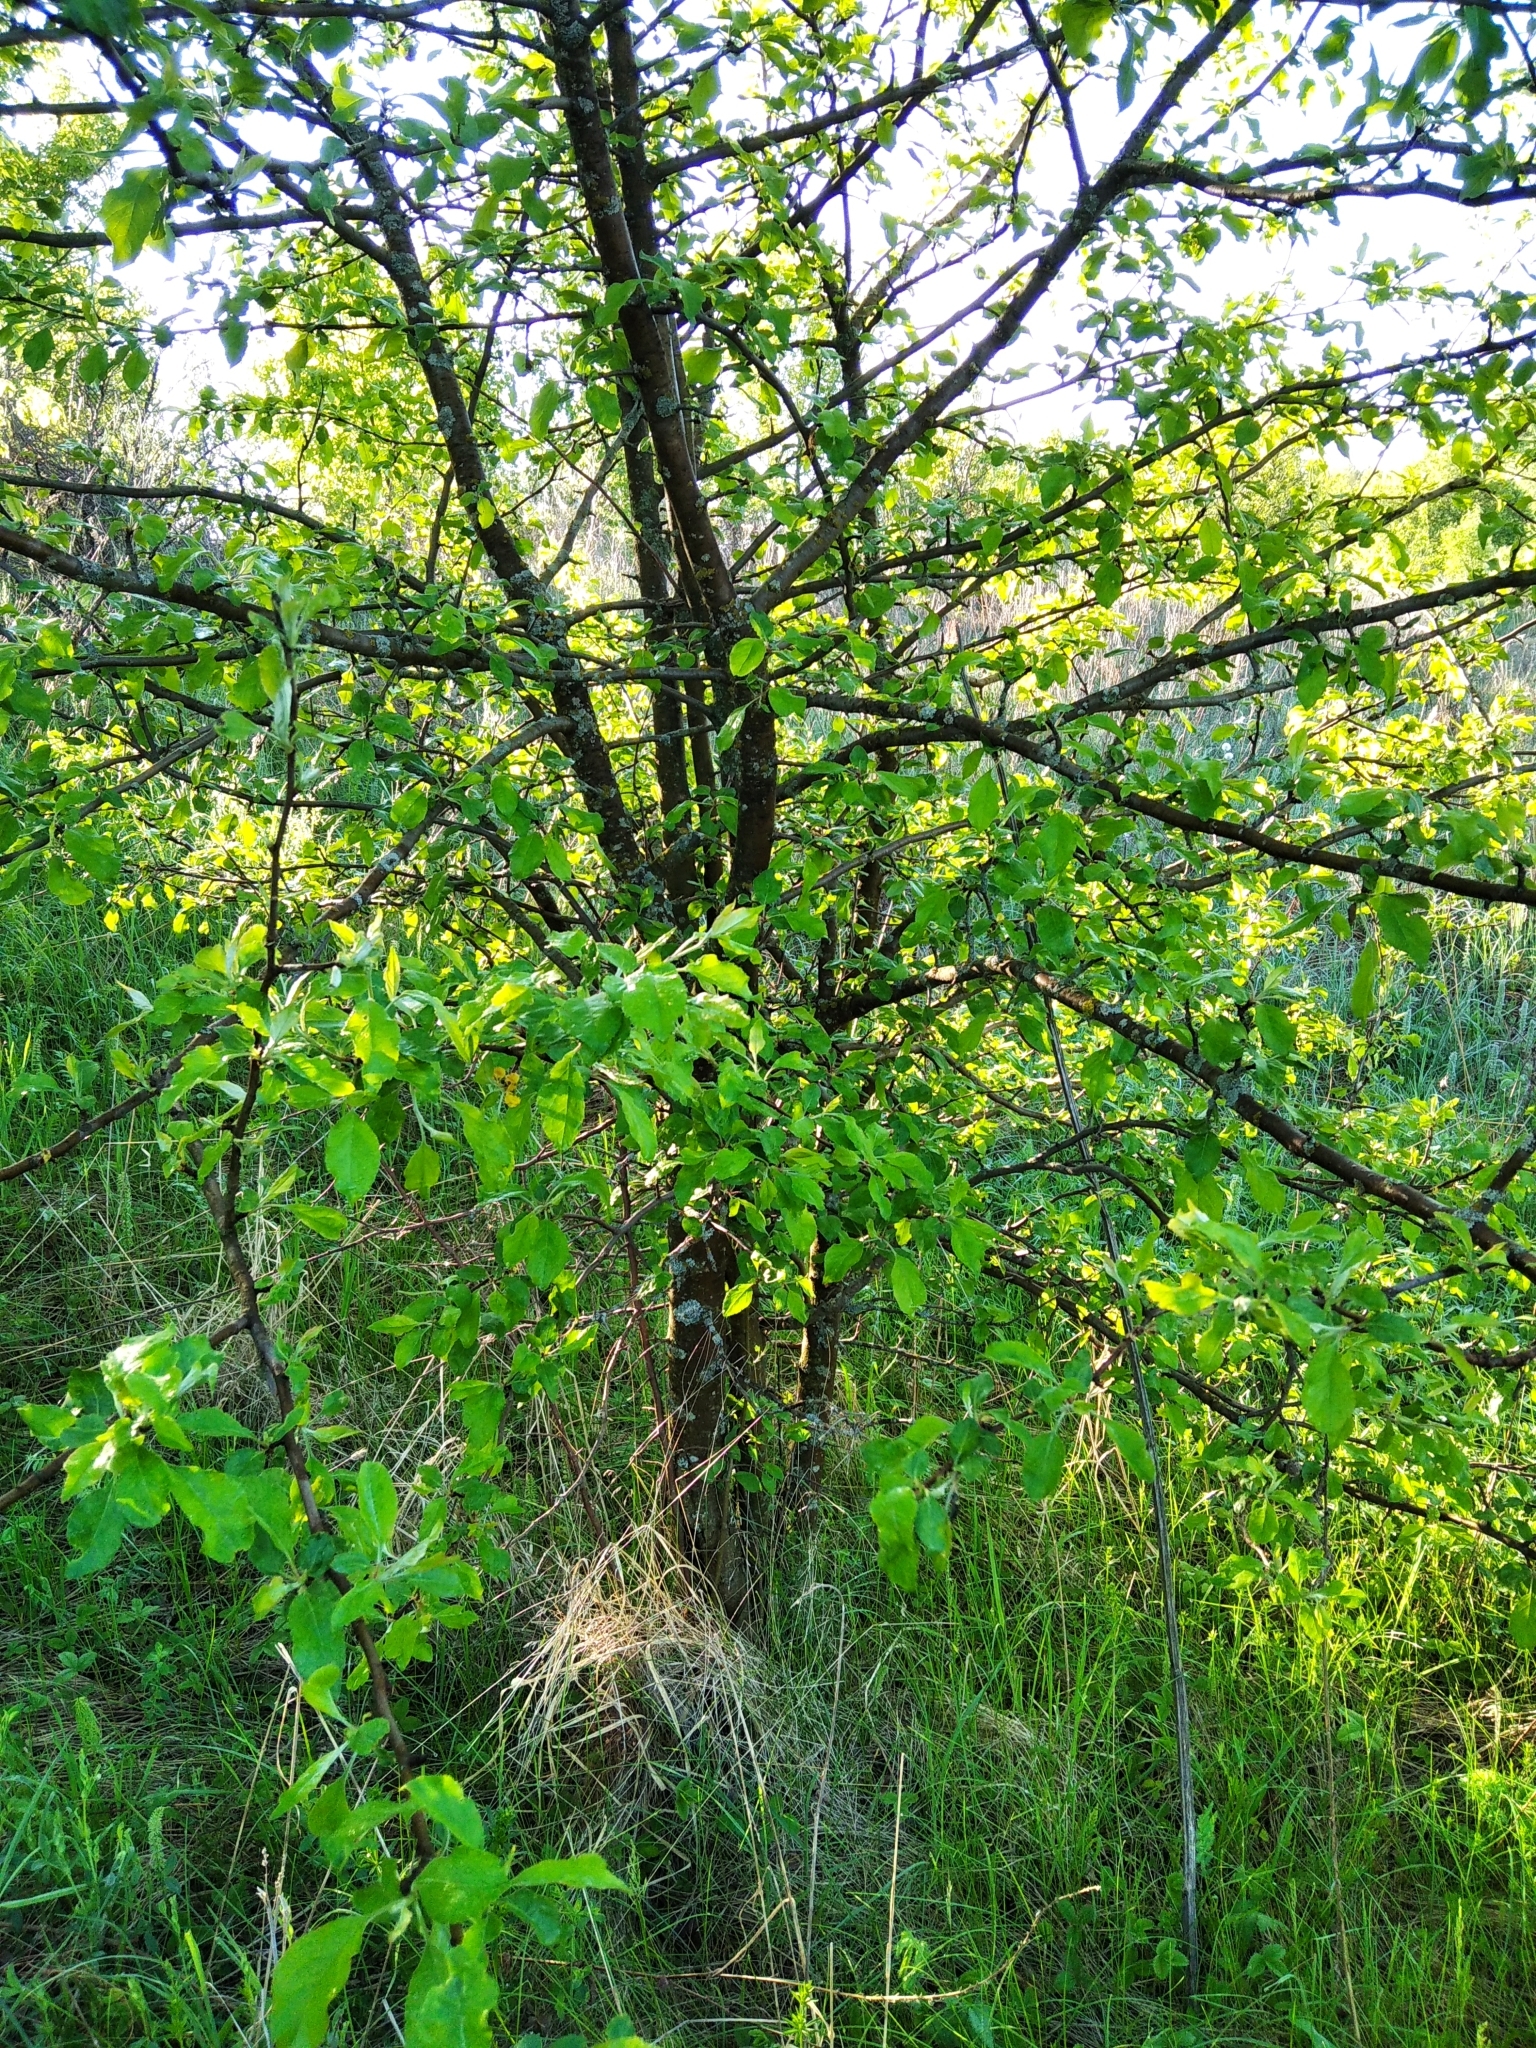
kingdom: Plantae
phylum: Tracheophyta
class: Magnoliopsida
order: Rosales
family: Rosaceae
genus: Malus
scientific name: Malus domestica
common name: Apple
